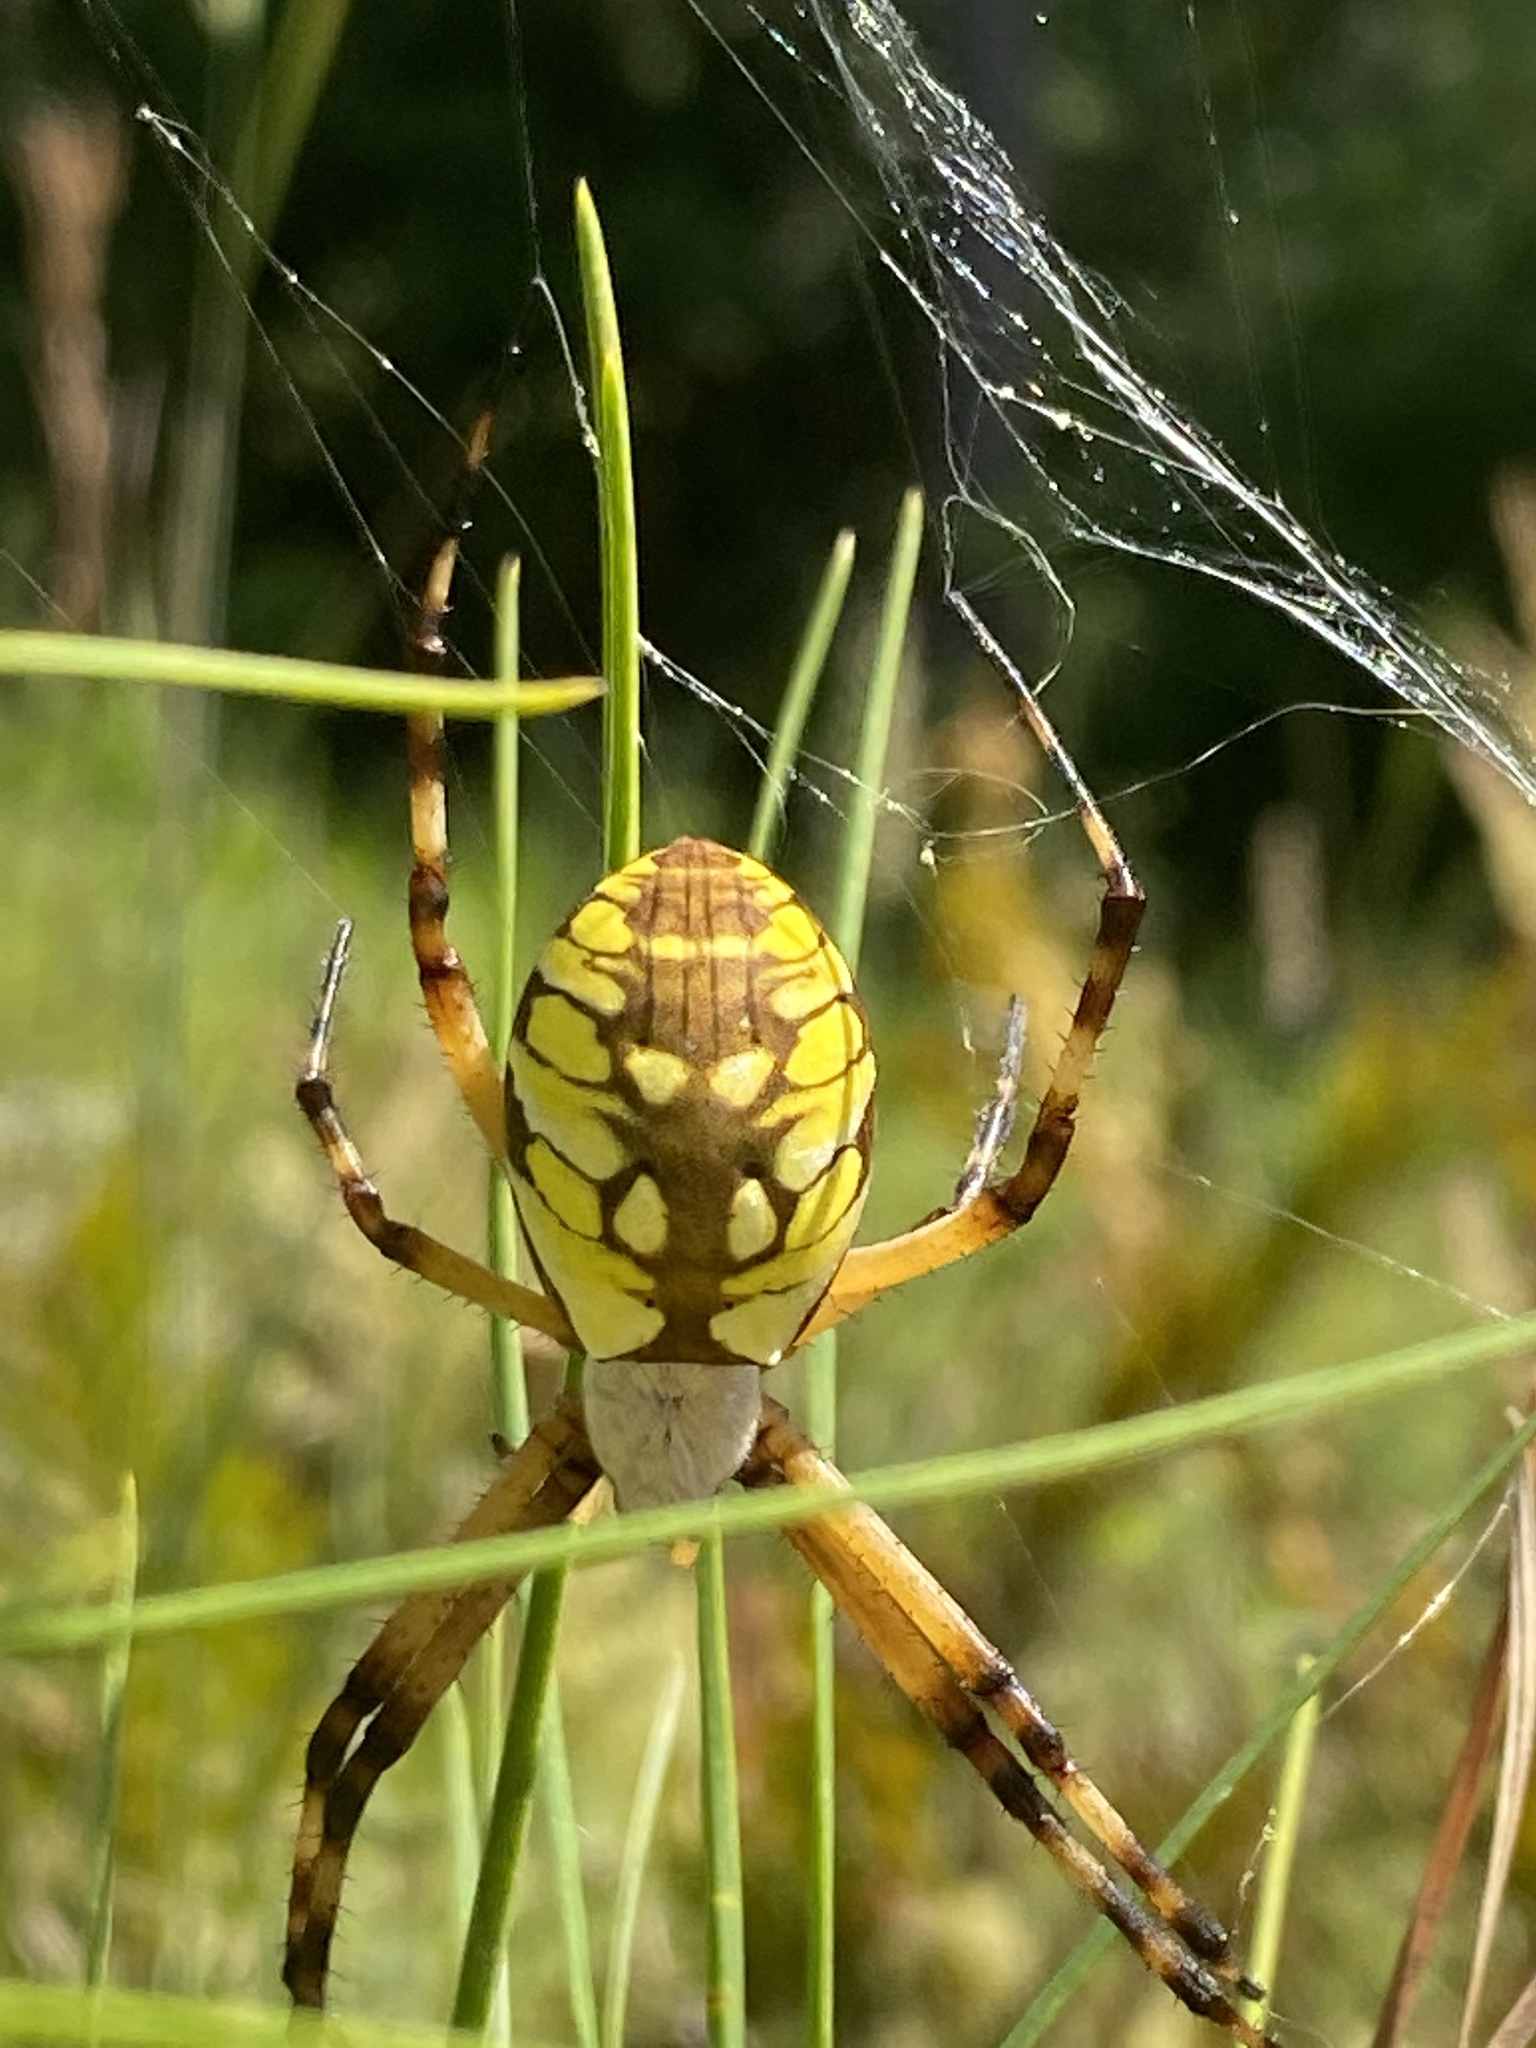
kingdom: Animalia
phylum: Arthropoda
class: Arachnida
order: Araneae
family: Araneidae
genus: Argiope
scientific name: Argiope aurantia
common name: Orb weavers
